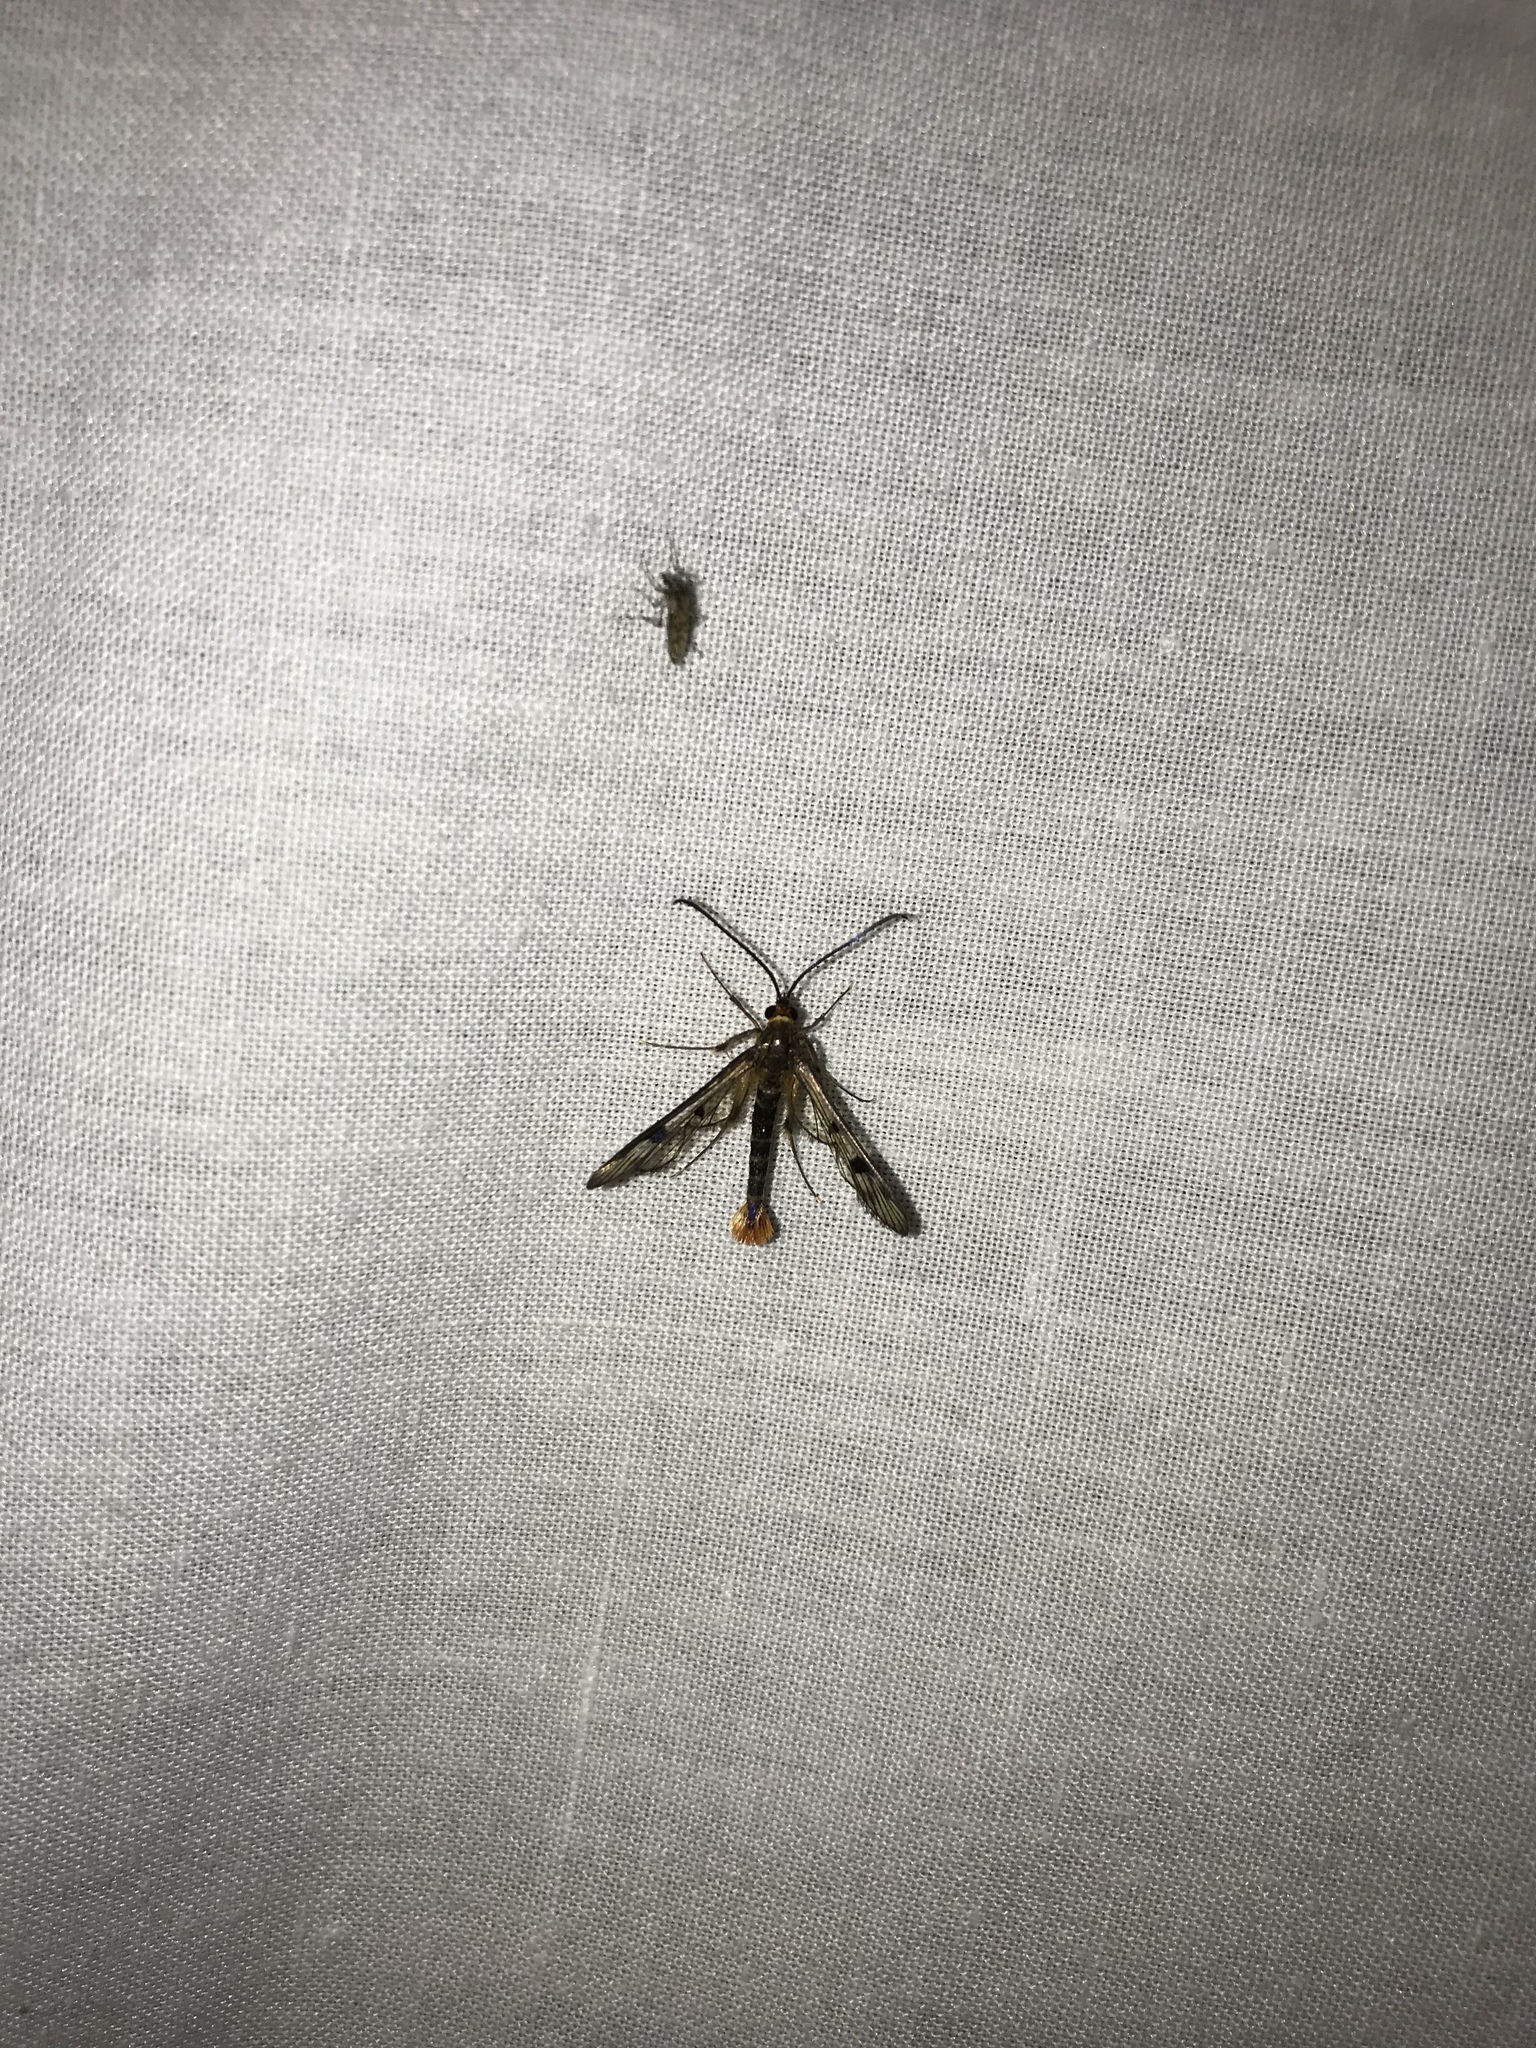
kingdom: Animalia
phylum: Arthropoda
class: Insecta
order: Lepidoptera
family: Sesiidae
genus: Synanthedon
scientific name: Synanthedon acerni
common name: Maple callus borer moth
